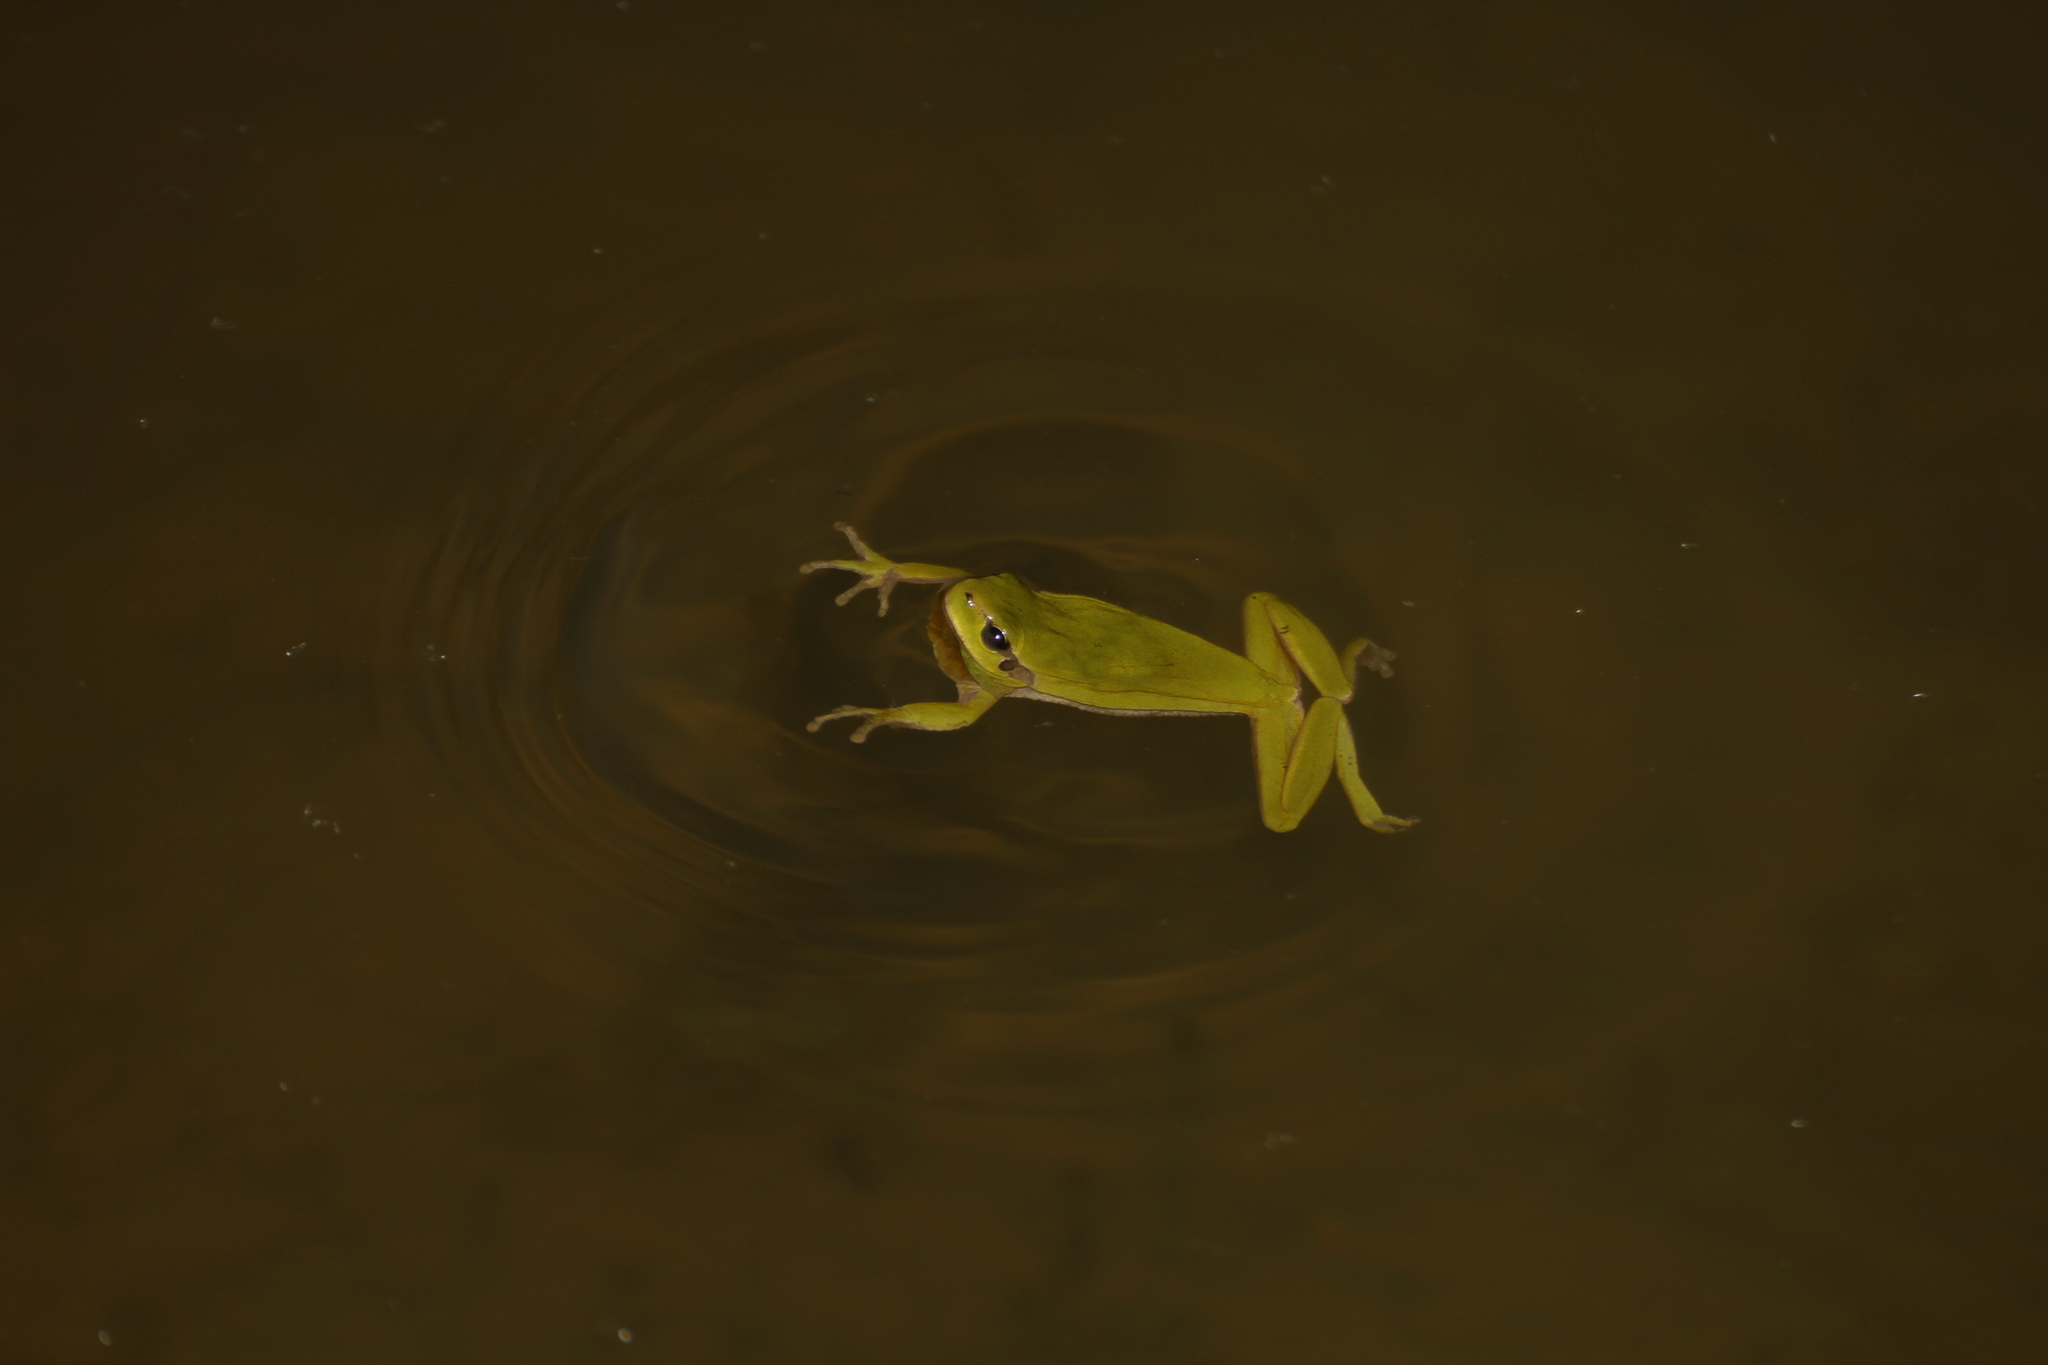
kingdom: Animalia
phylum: Chordata
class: Amphibia
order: Anura
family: Hylidae
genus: Hyla
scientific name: Hyla meridionalis
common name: Stripeless tree frog
